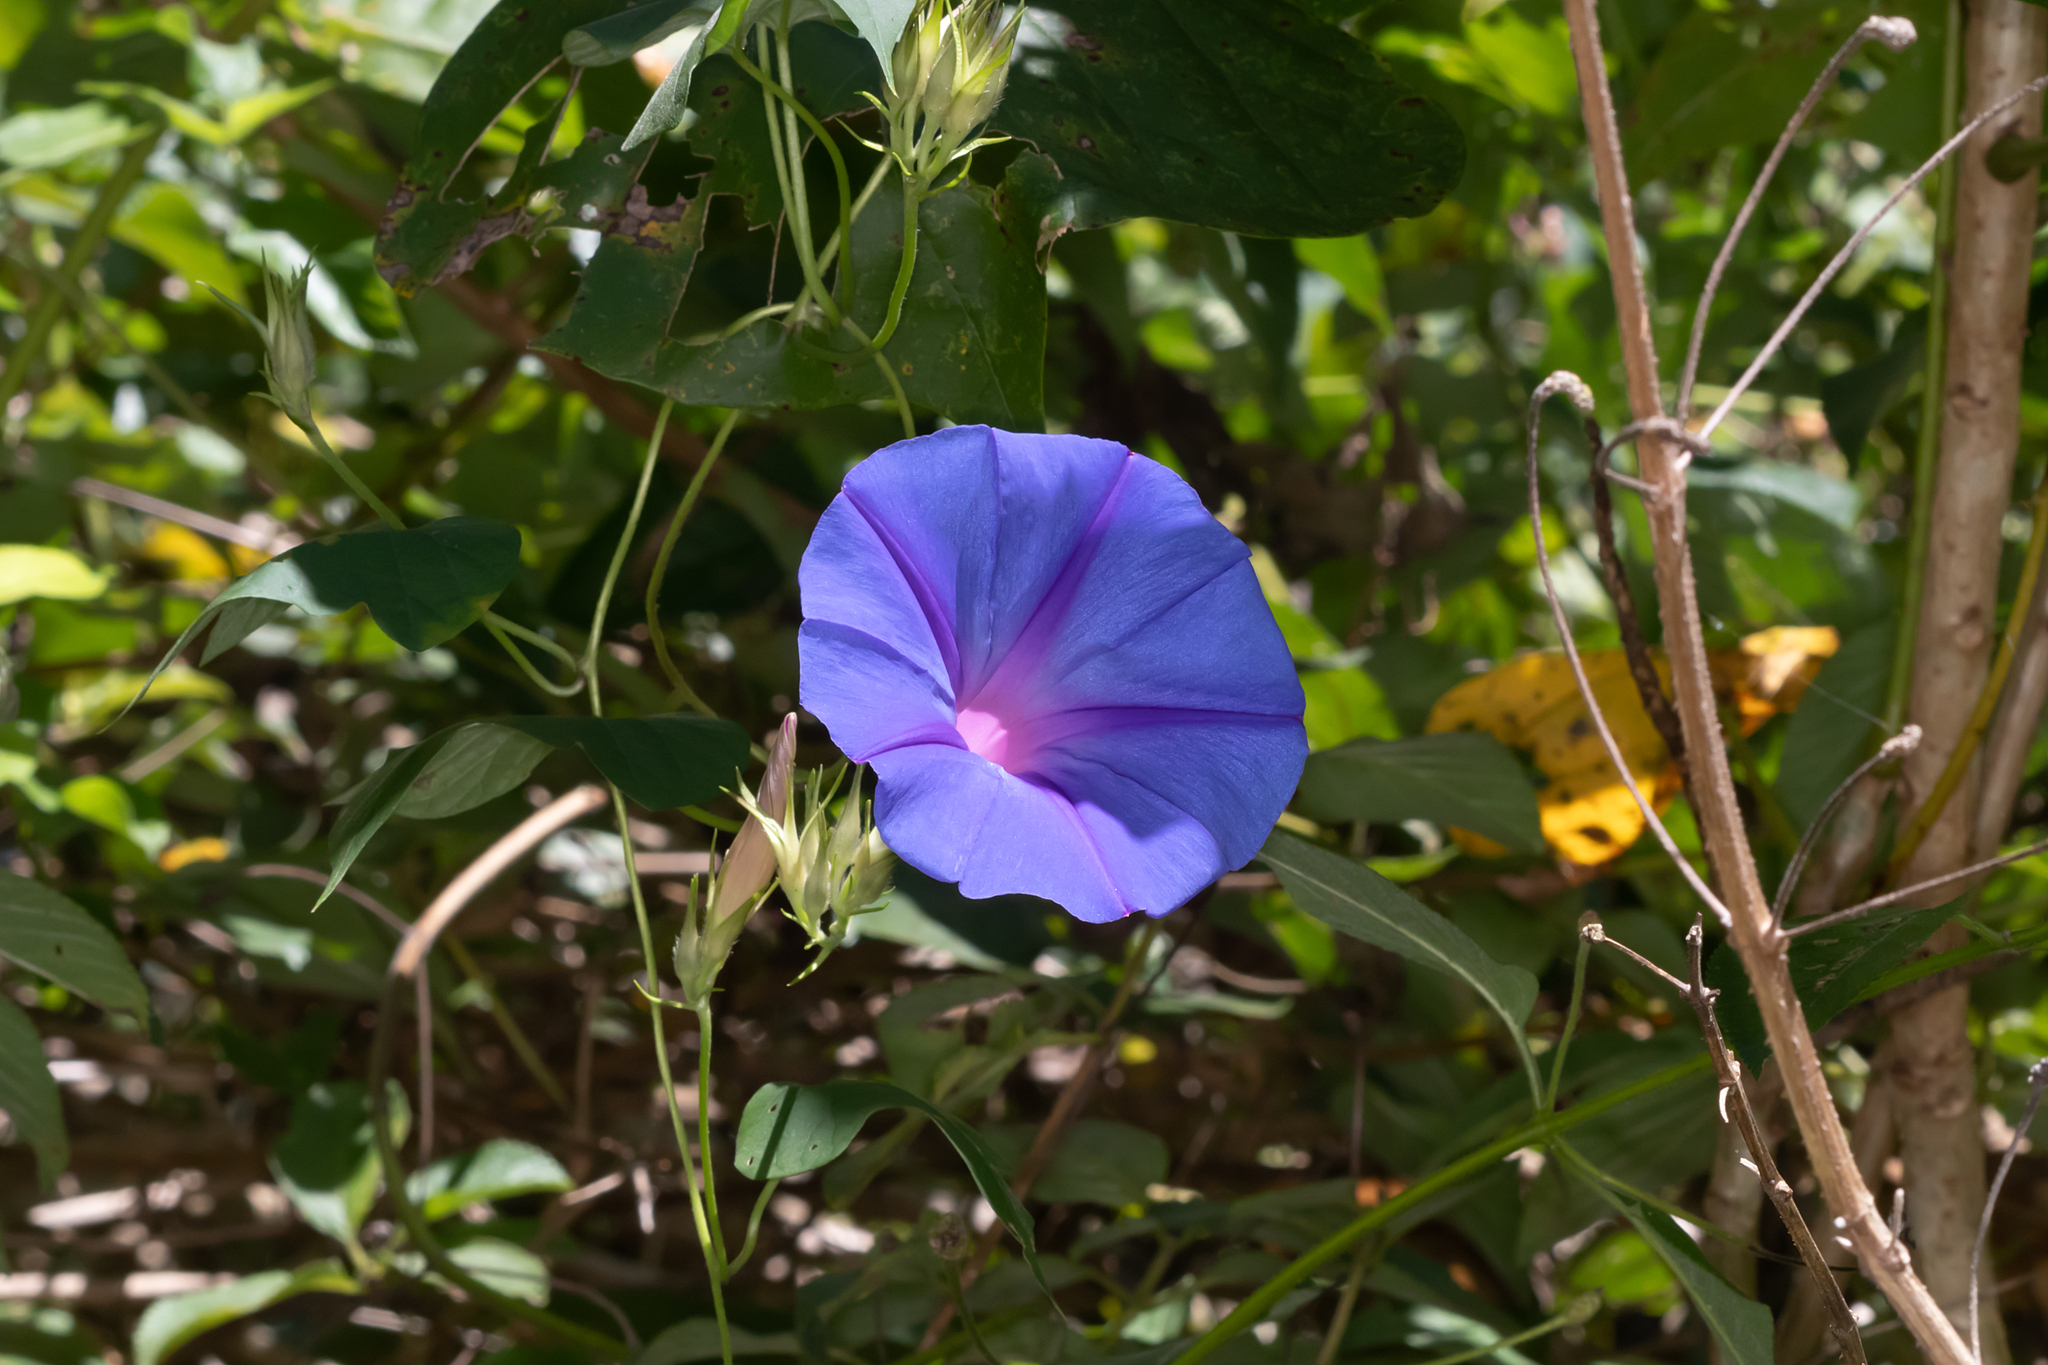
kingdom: Plantae
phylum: Tracheophyta
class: Magnoliopsida
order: Solanales
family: Convolvulaceae
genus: Ipomoea
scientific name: Ipomoea indica
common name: Blue dawnflower
